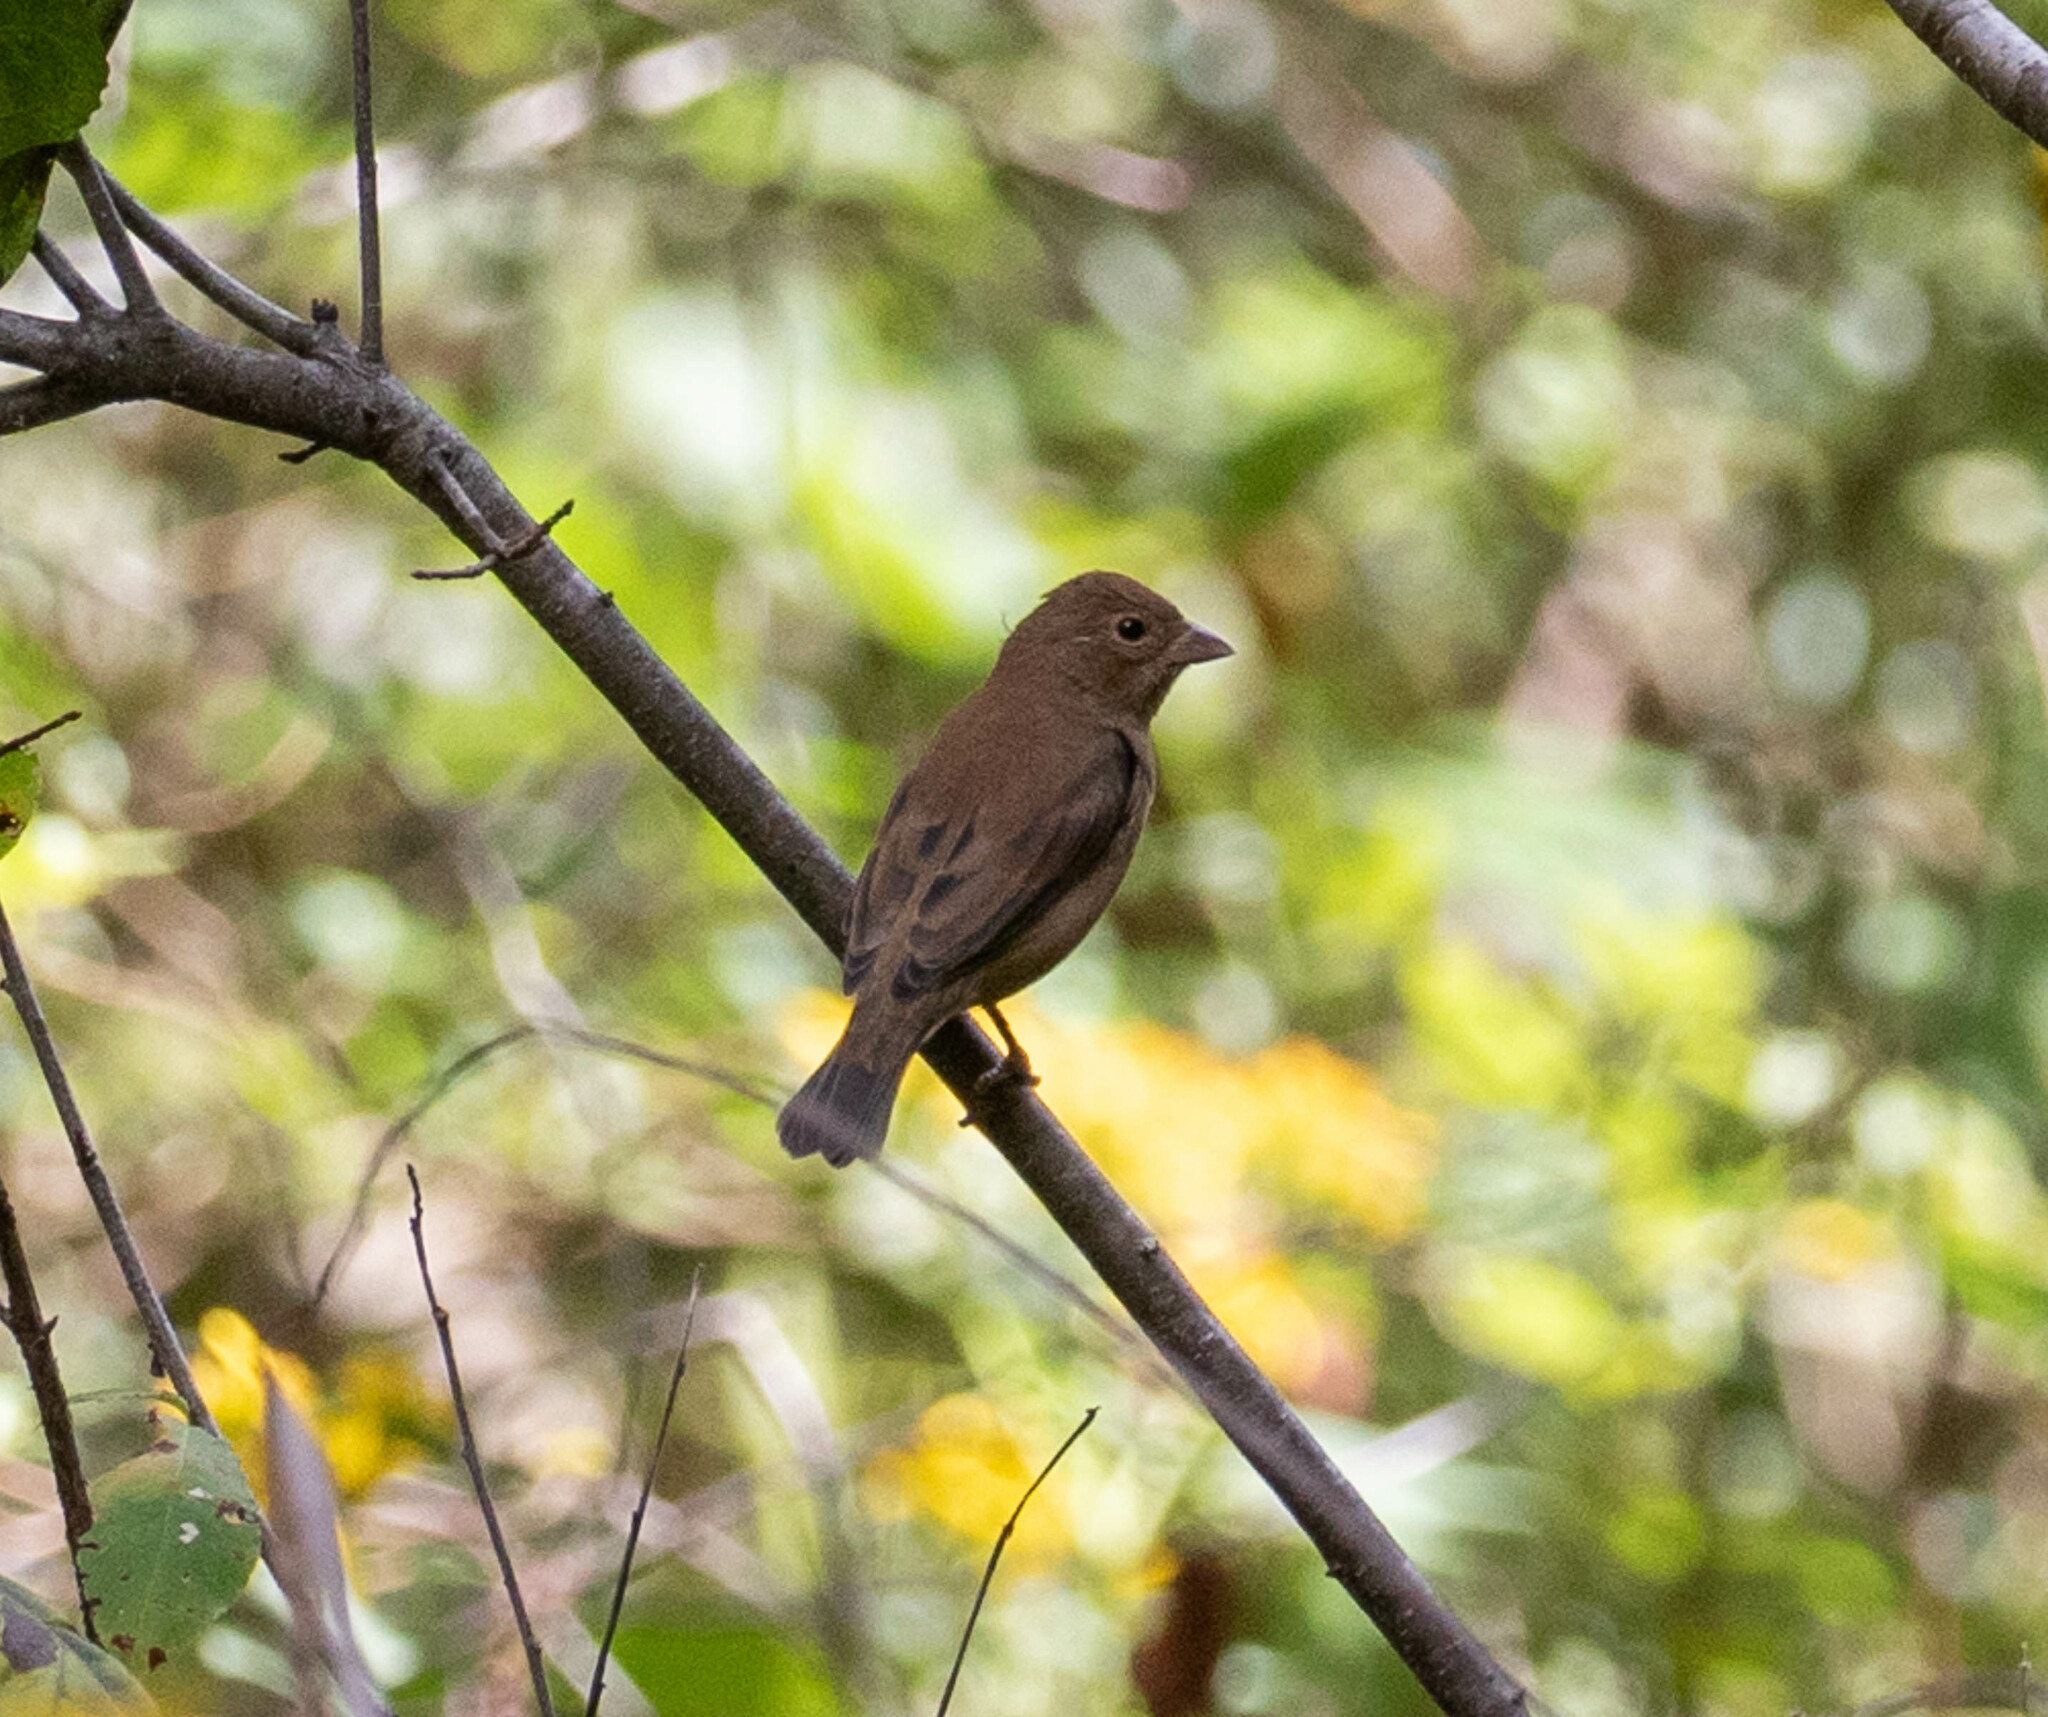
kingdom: Animalia
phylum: Chordata
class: Aves
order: Passeriformes
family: Cardinalidae
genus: Passerina
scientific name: Passerina cyanea
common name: Indigo bunting
